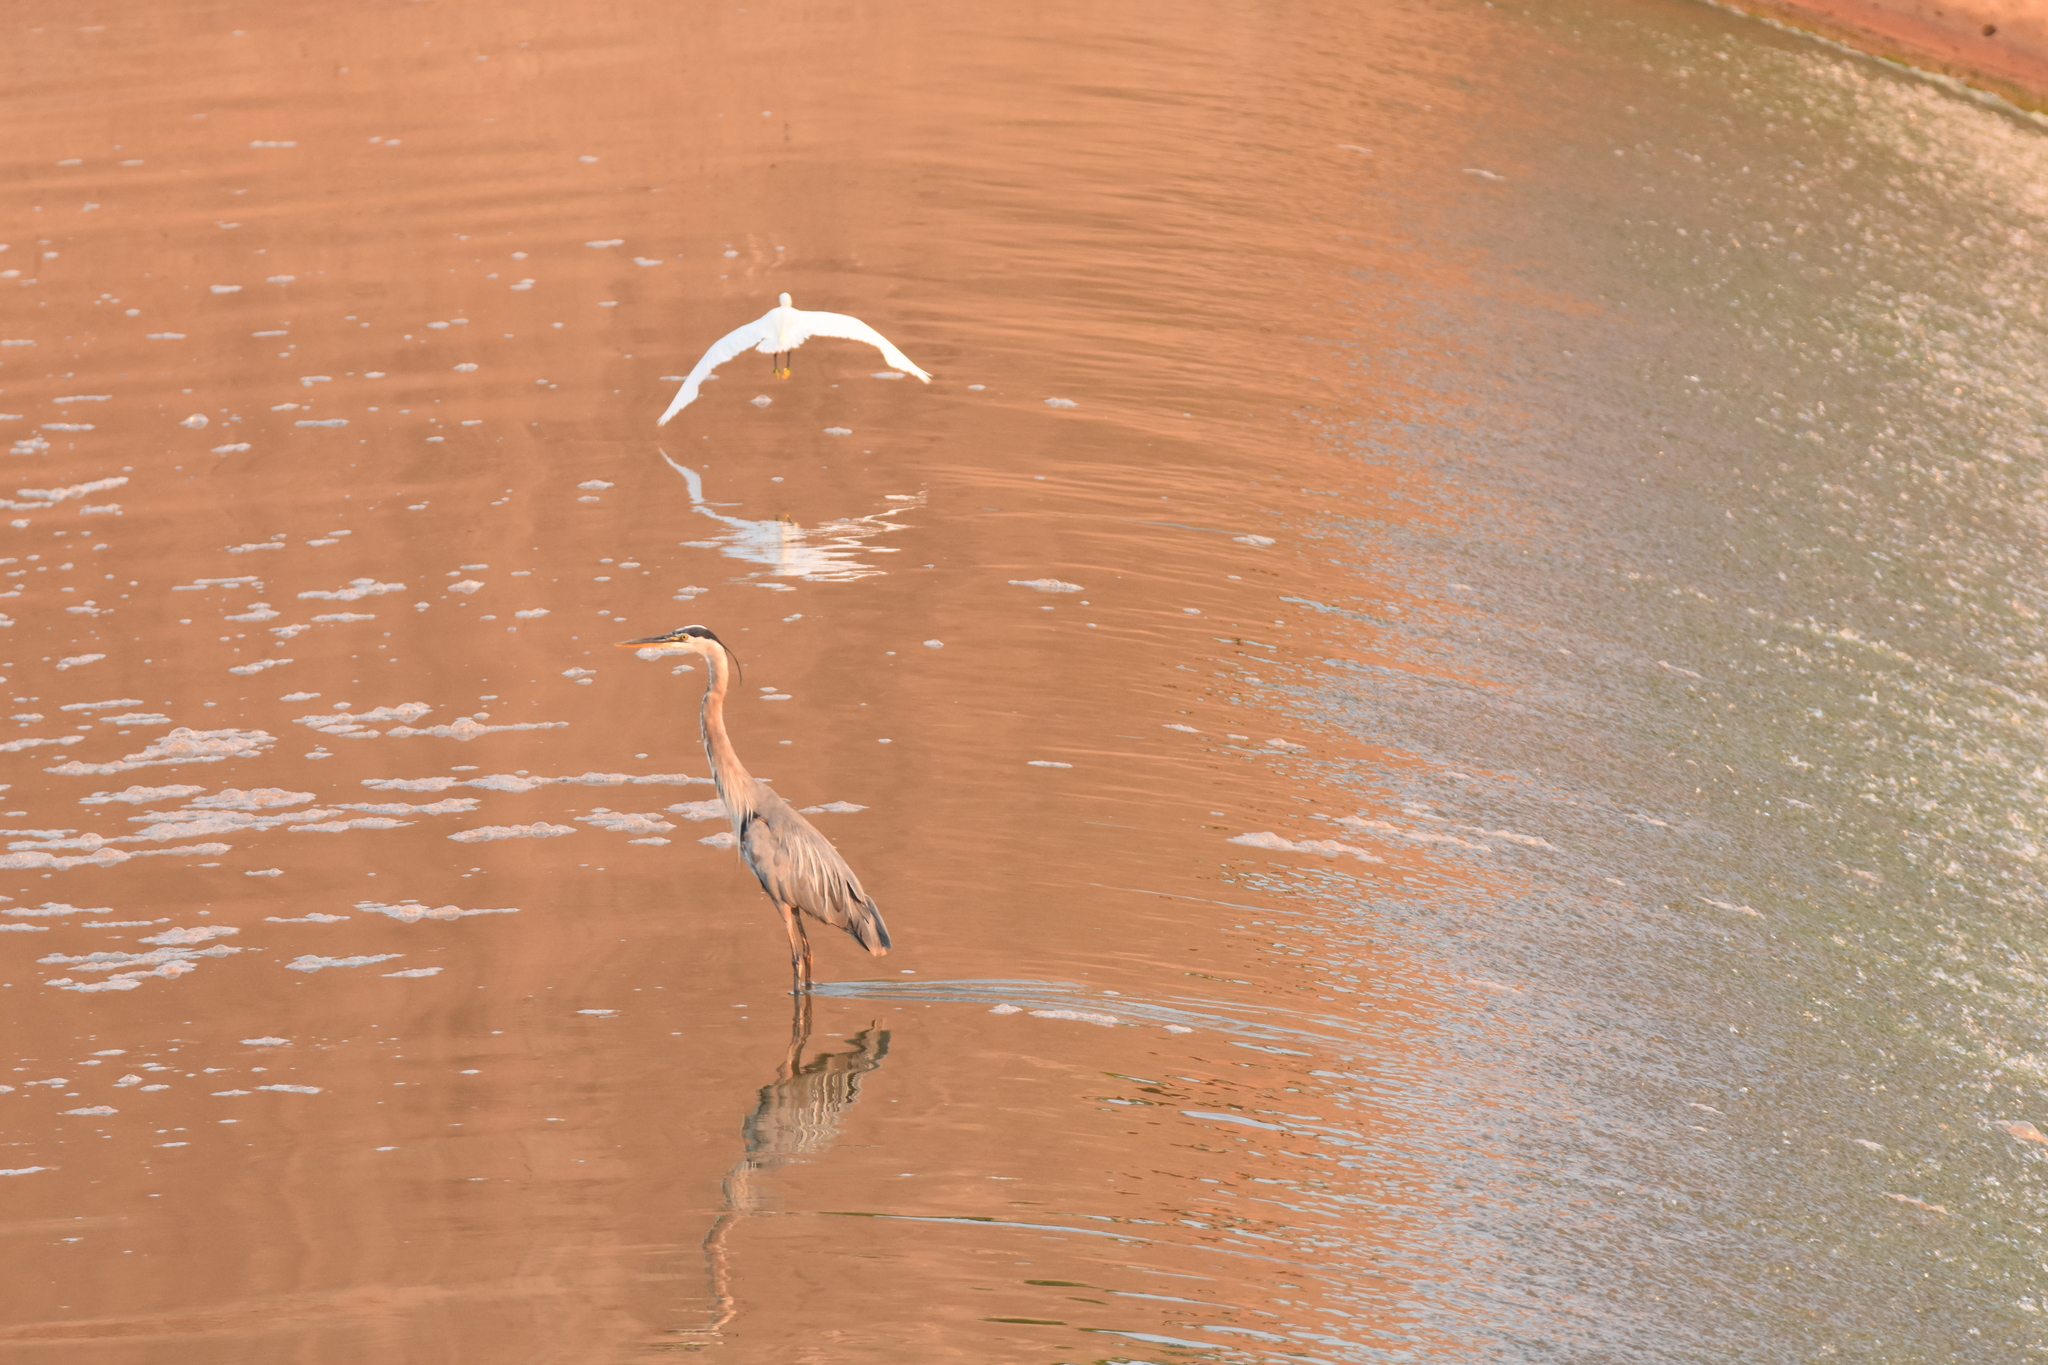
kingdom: Animalia
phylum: Chordata
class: Aves
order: Pelecaniformes
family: Ardeidae
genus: Ardea
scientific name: Ardea herodias
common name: Great blue heron
